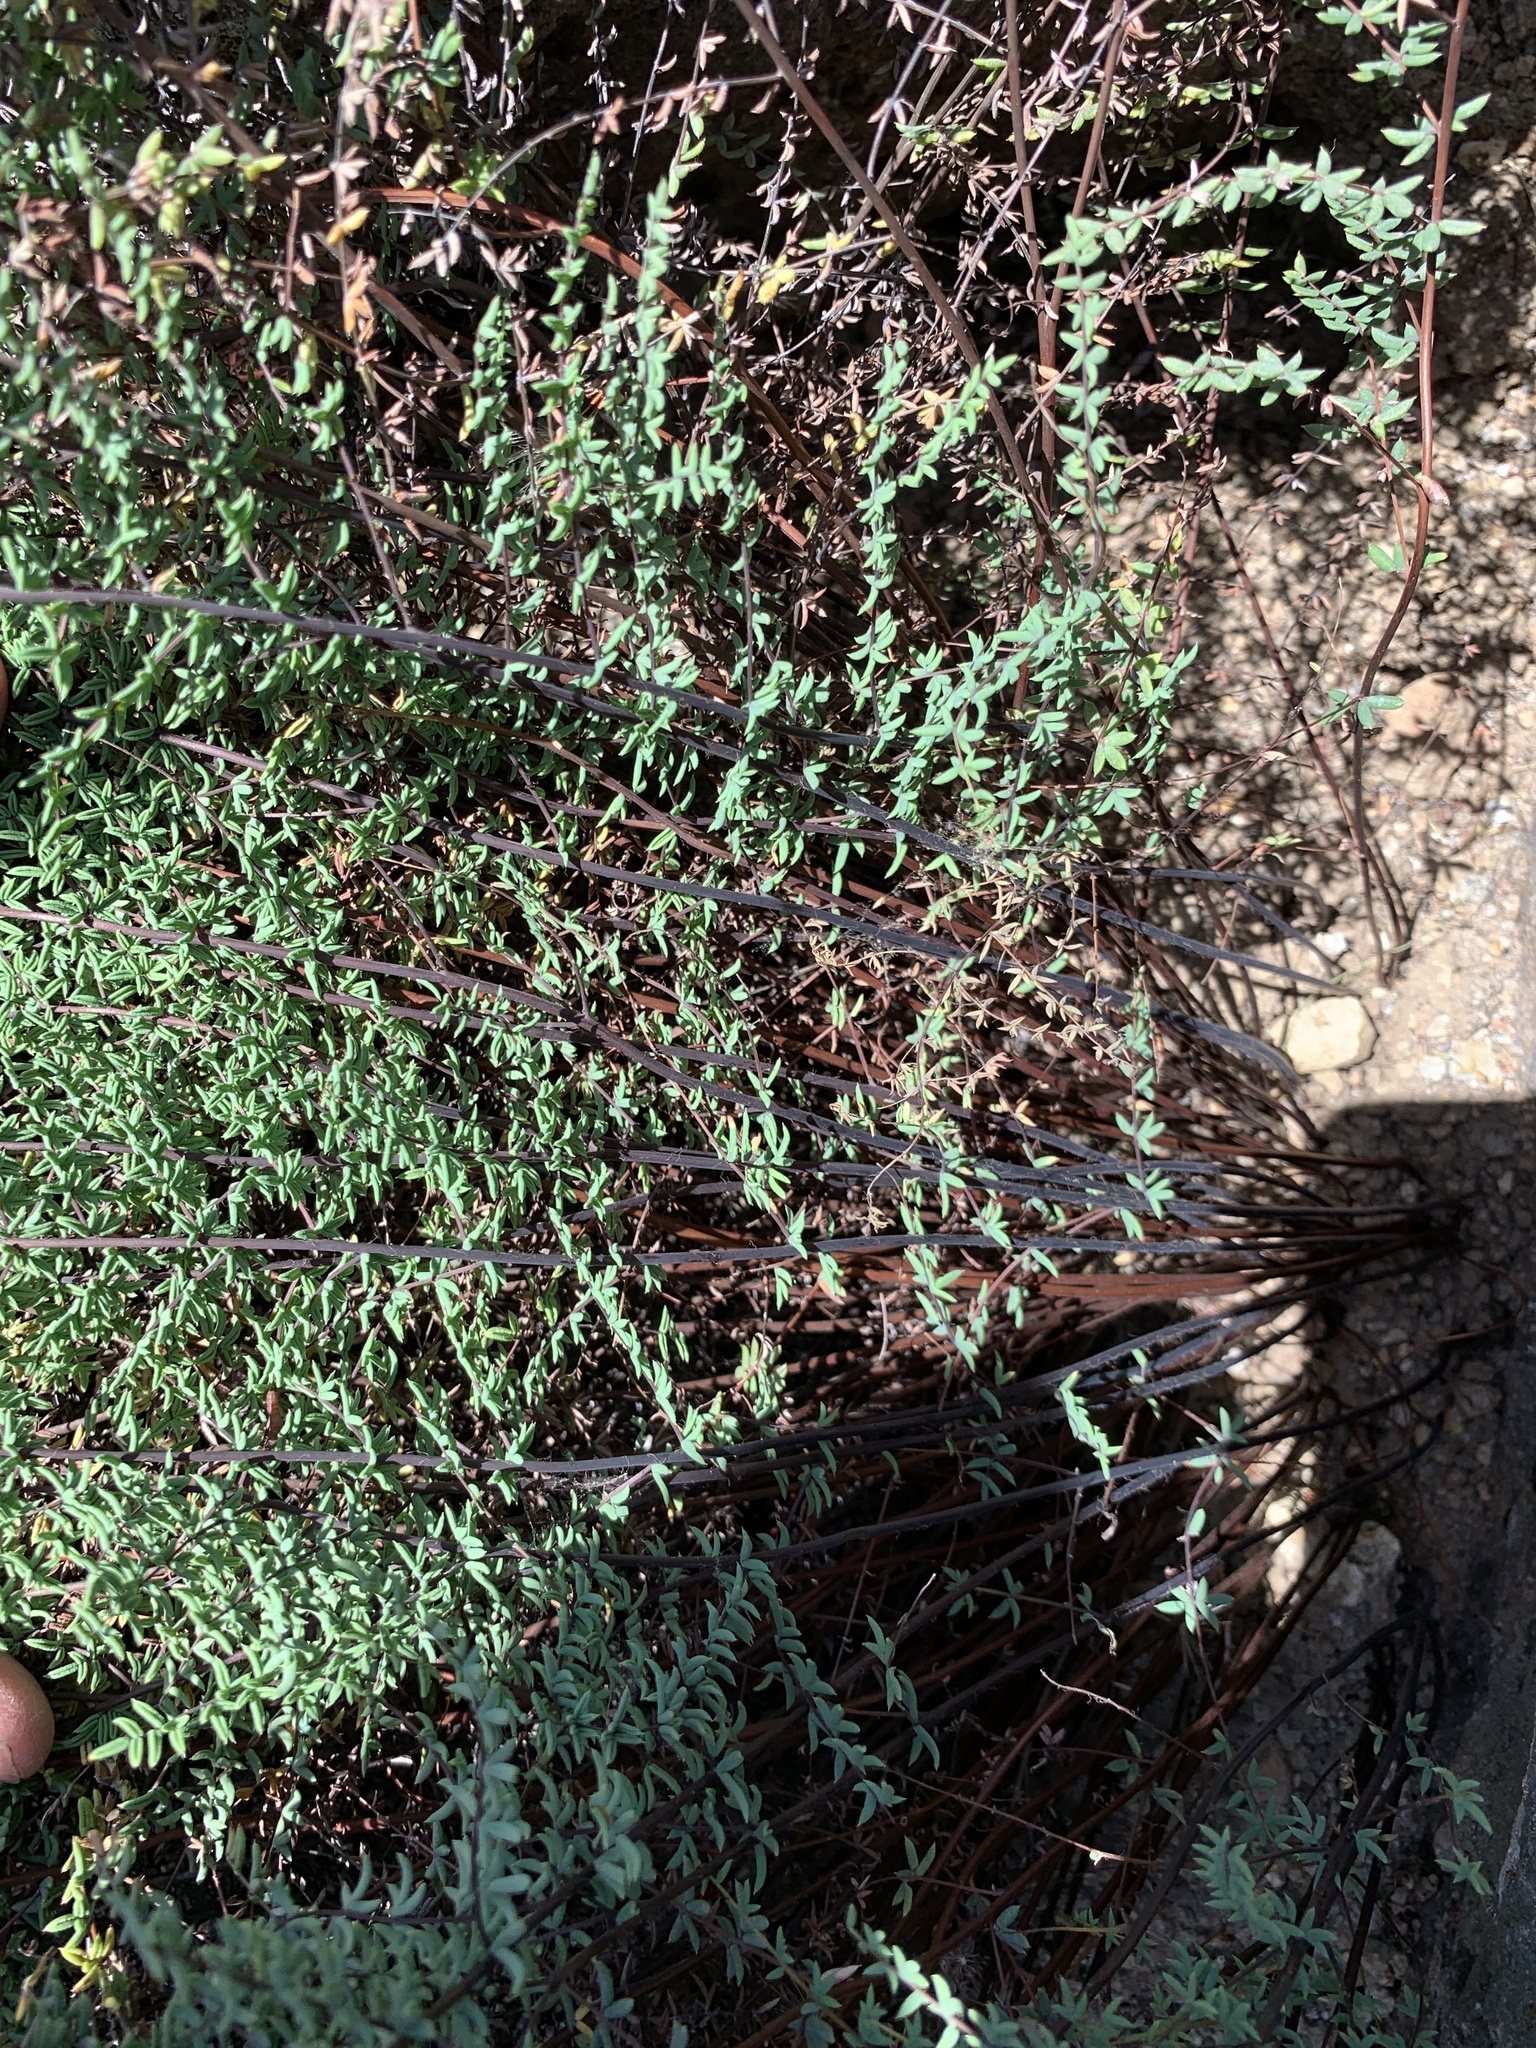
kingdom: Plantae
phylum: Tracheophyta
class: Polypodiopsida
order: Polypodiales
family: Pteridaceae
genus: Pellaea
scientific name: Pellaea mucronata
